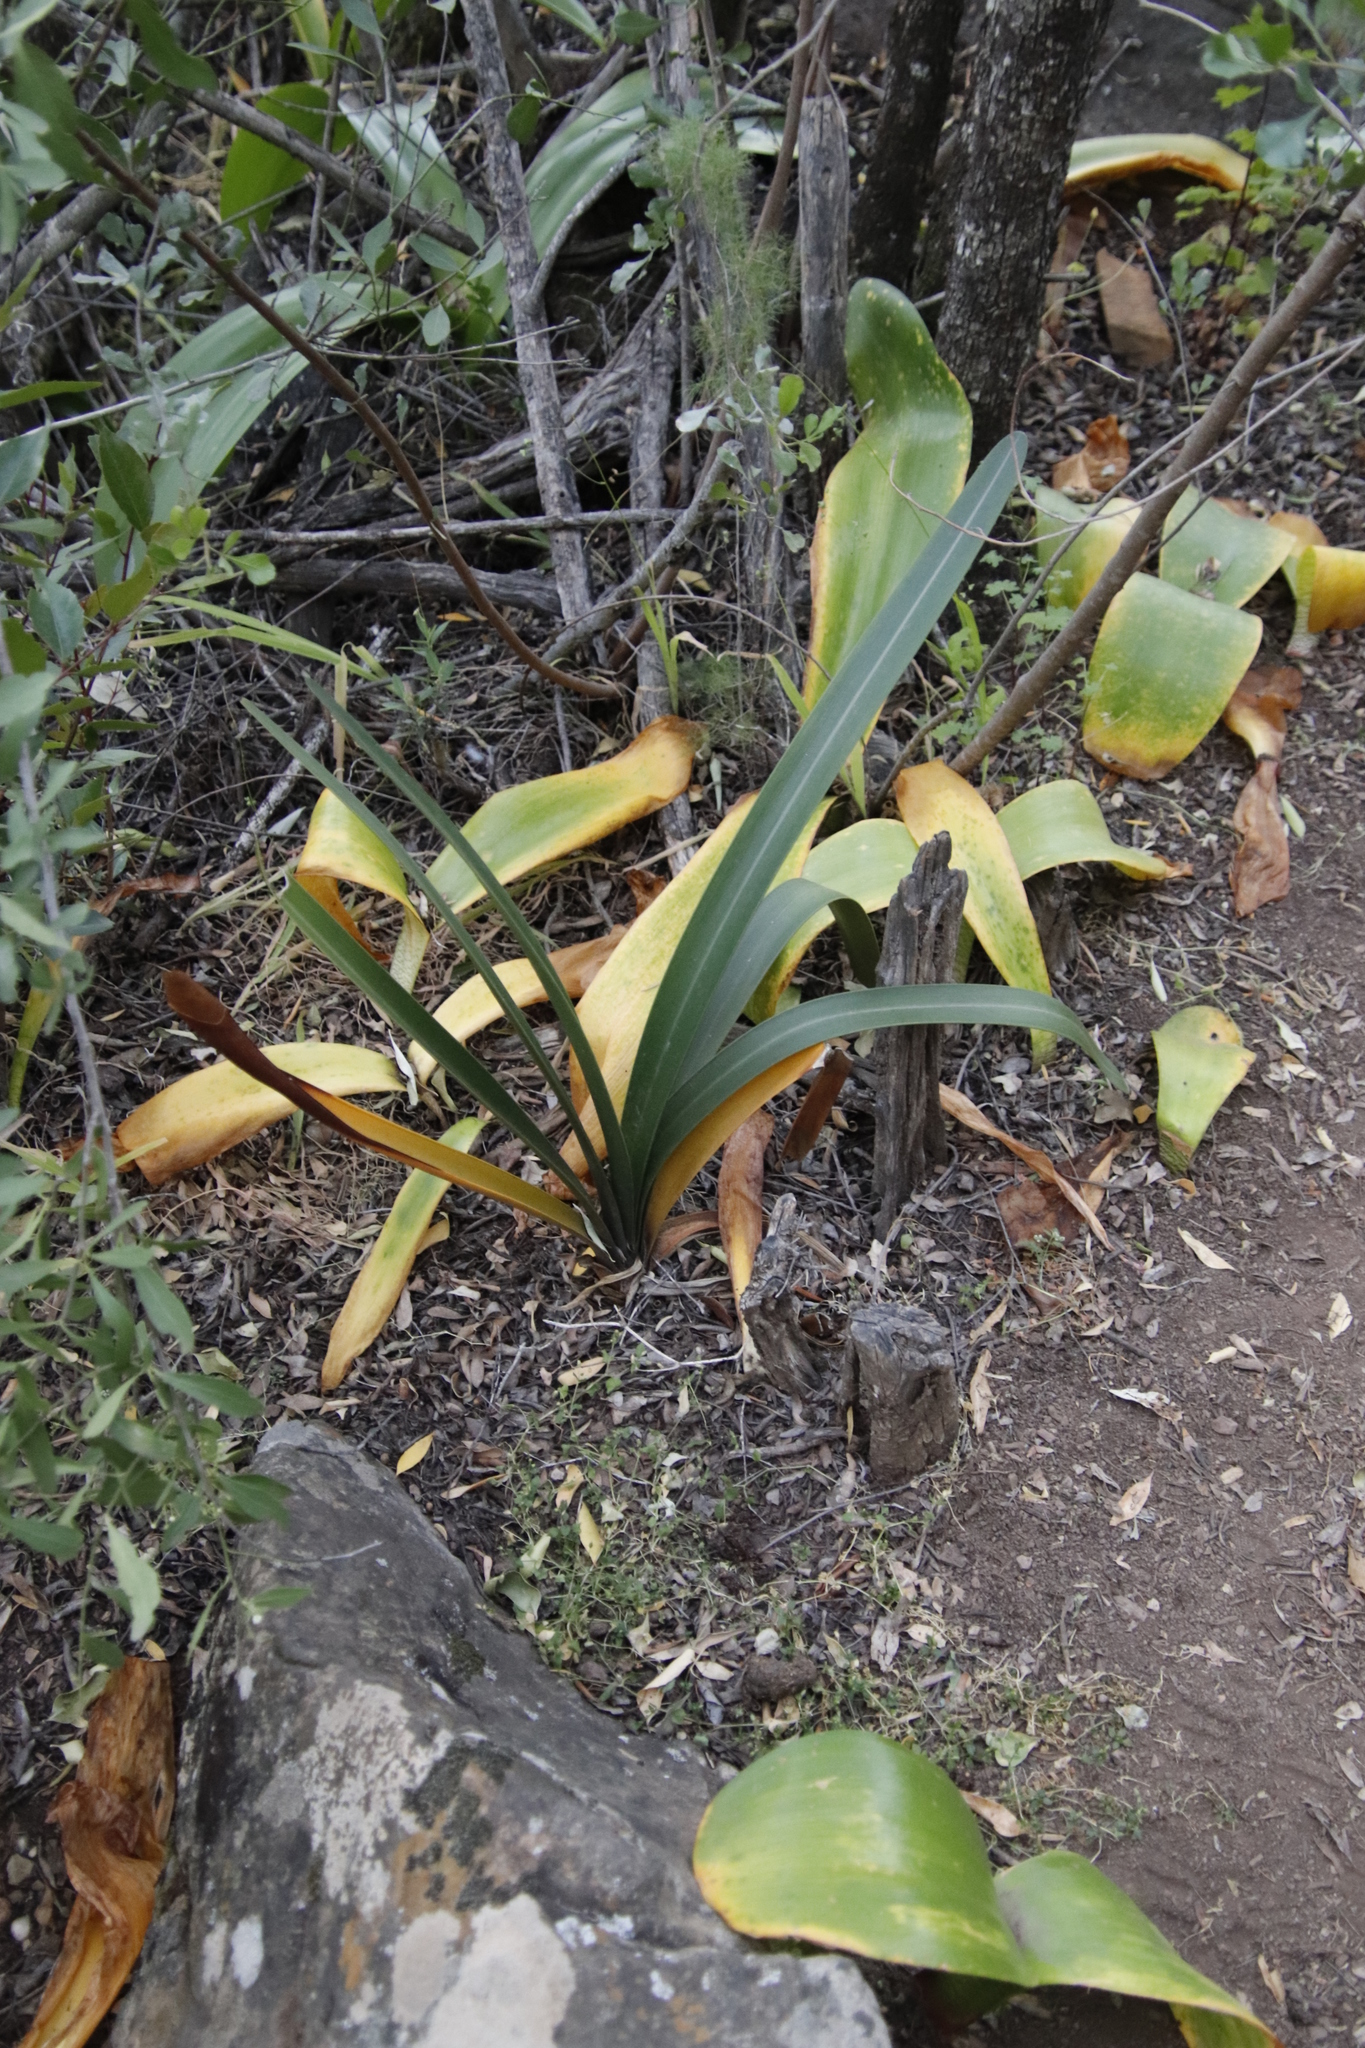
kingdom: Plantae
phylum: Tracheophyta
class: Liliopsida
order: Asparagales
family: Amaryllidaceae
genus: Clivia
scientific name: Clivia mirabilis
